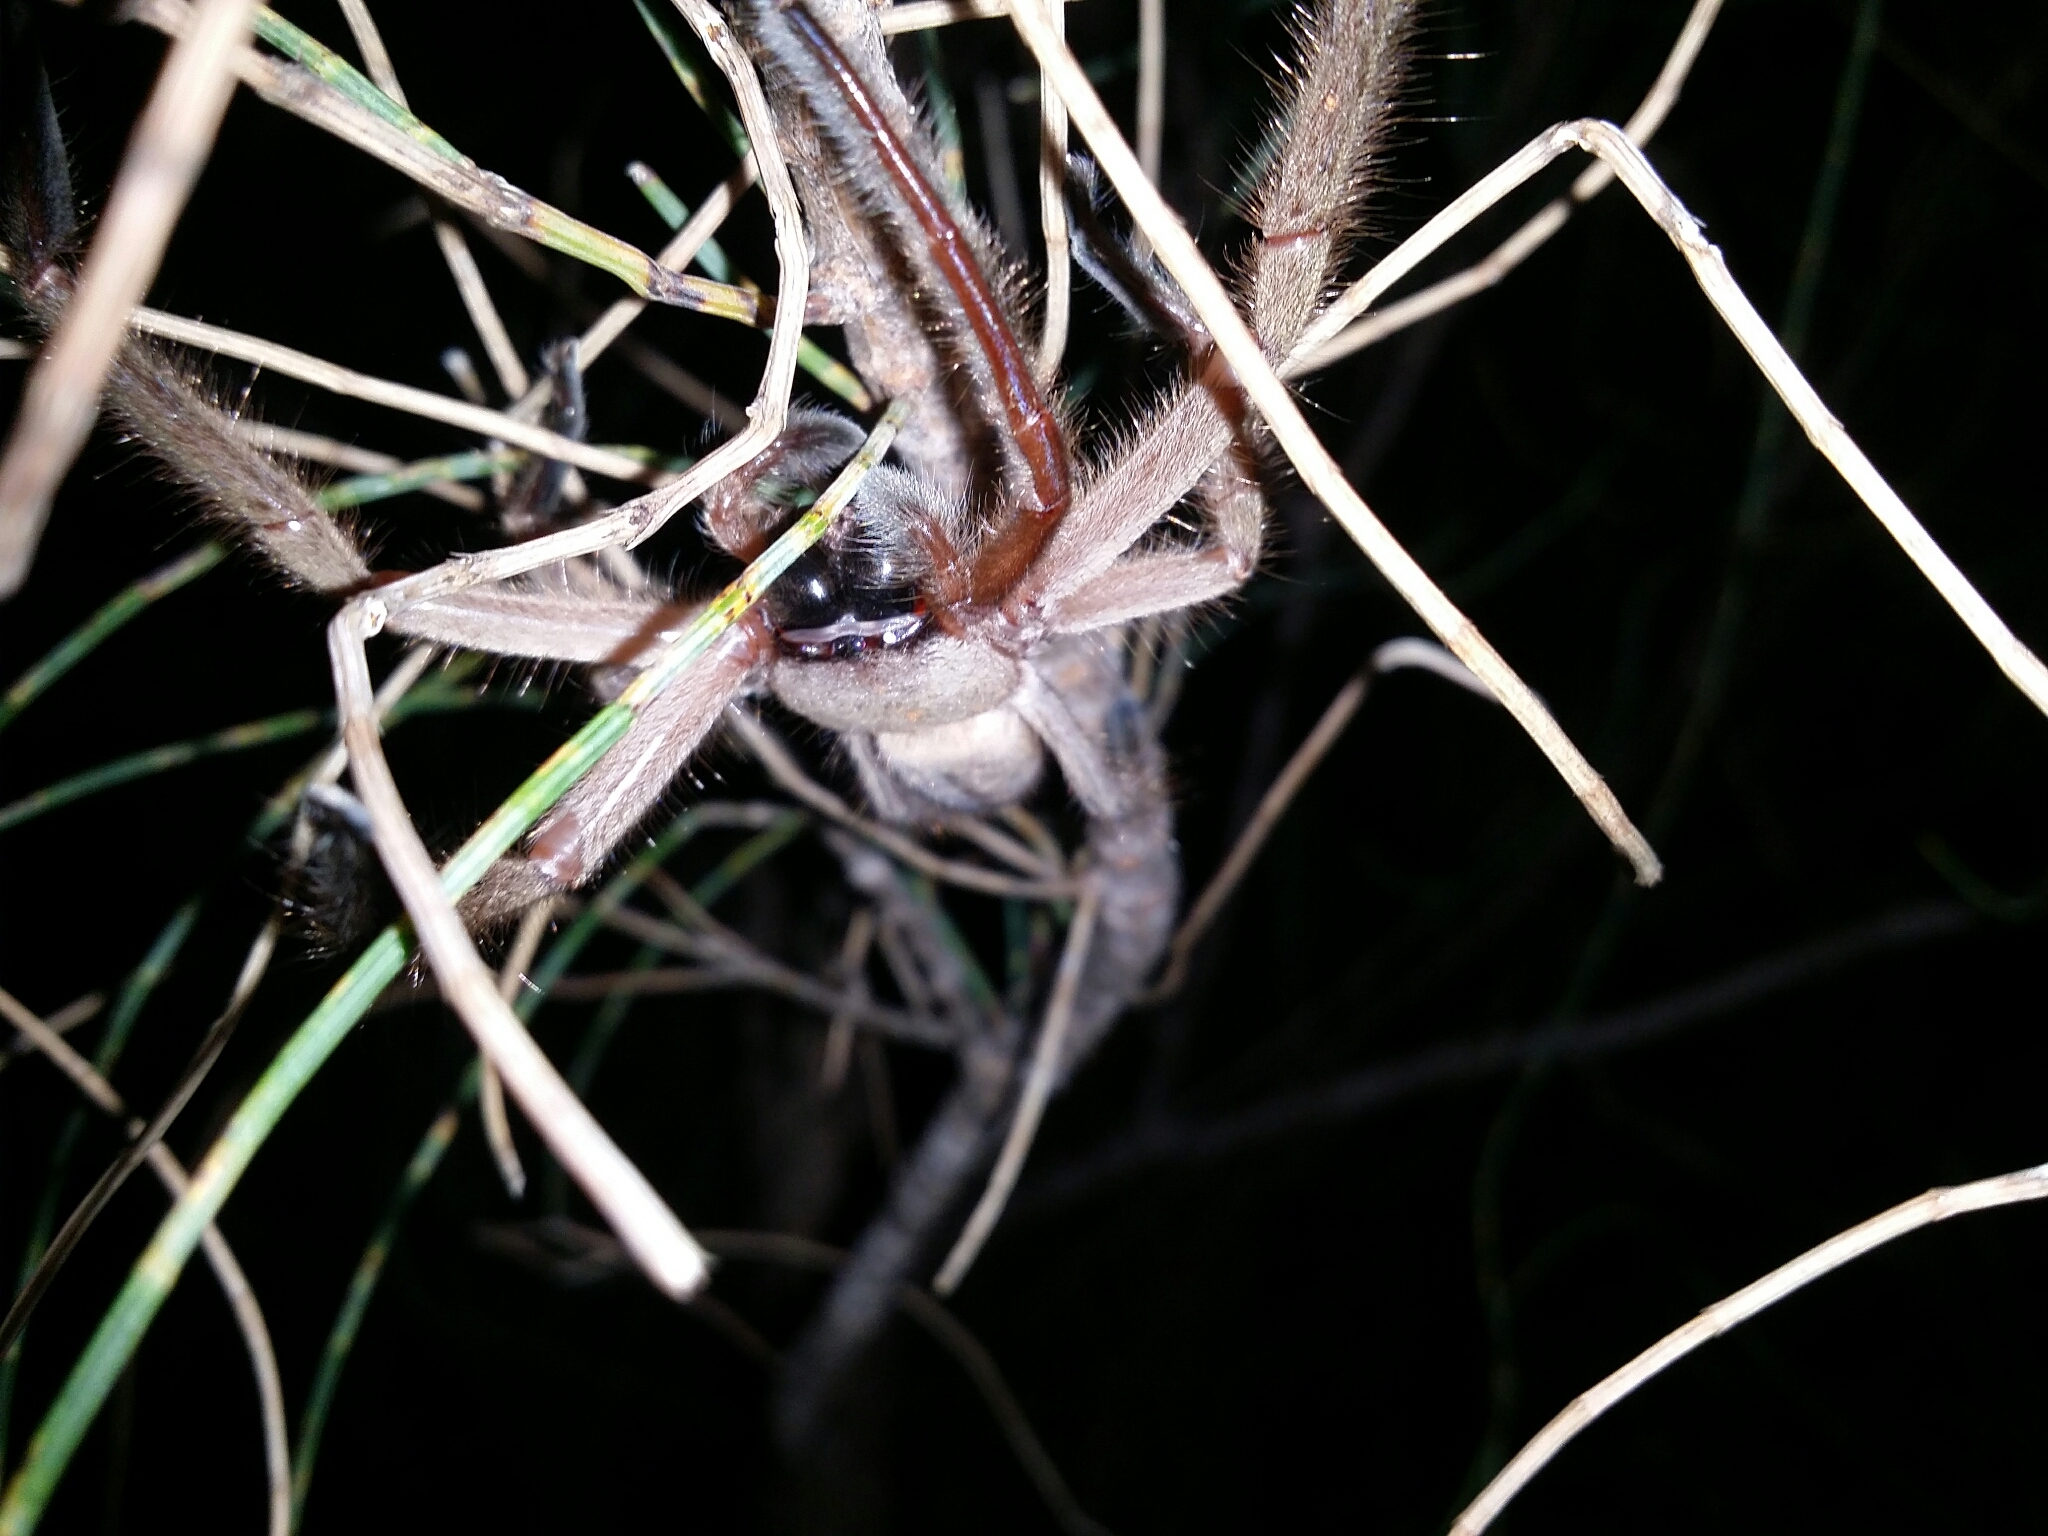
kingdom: Animalia
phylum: Arthropoda
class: Arachnida
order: Araneae
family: Sparassidae
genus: Delena
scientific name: Delena cancerides
